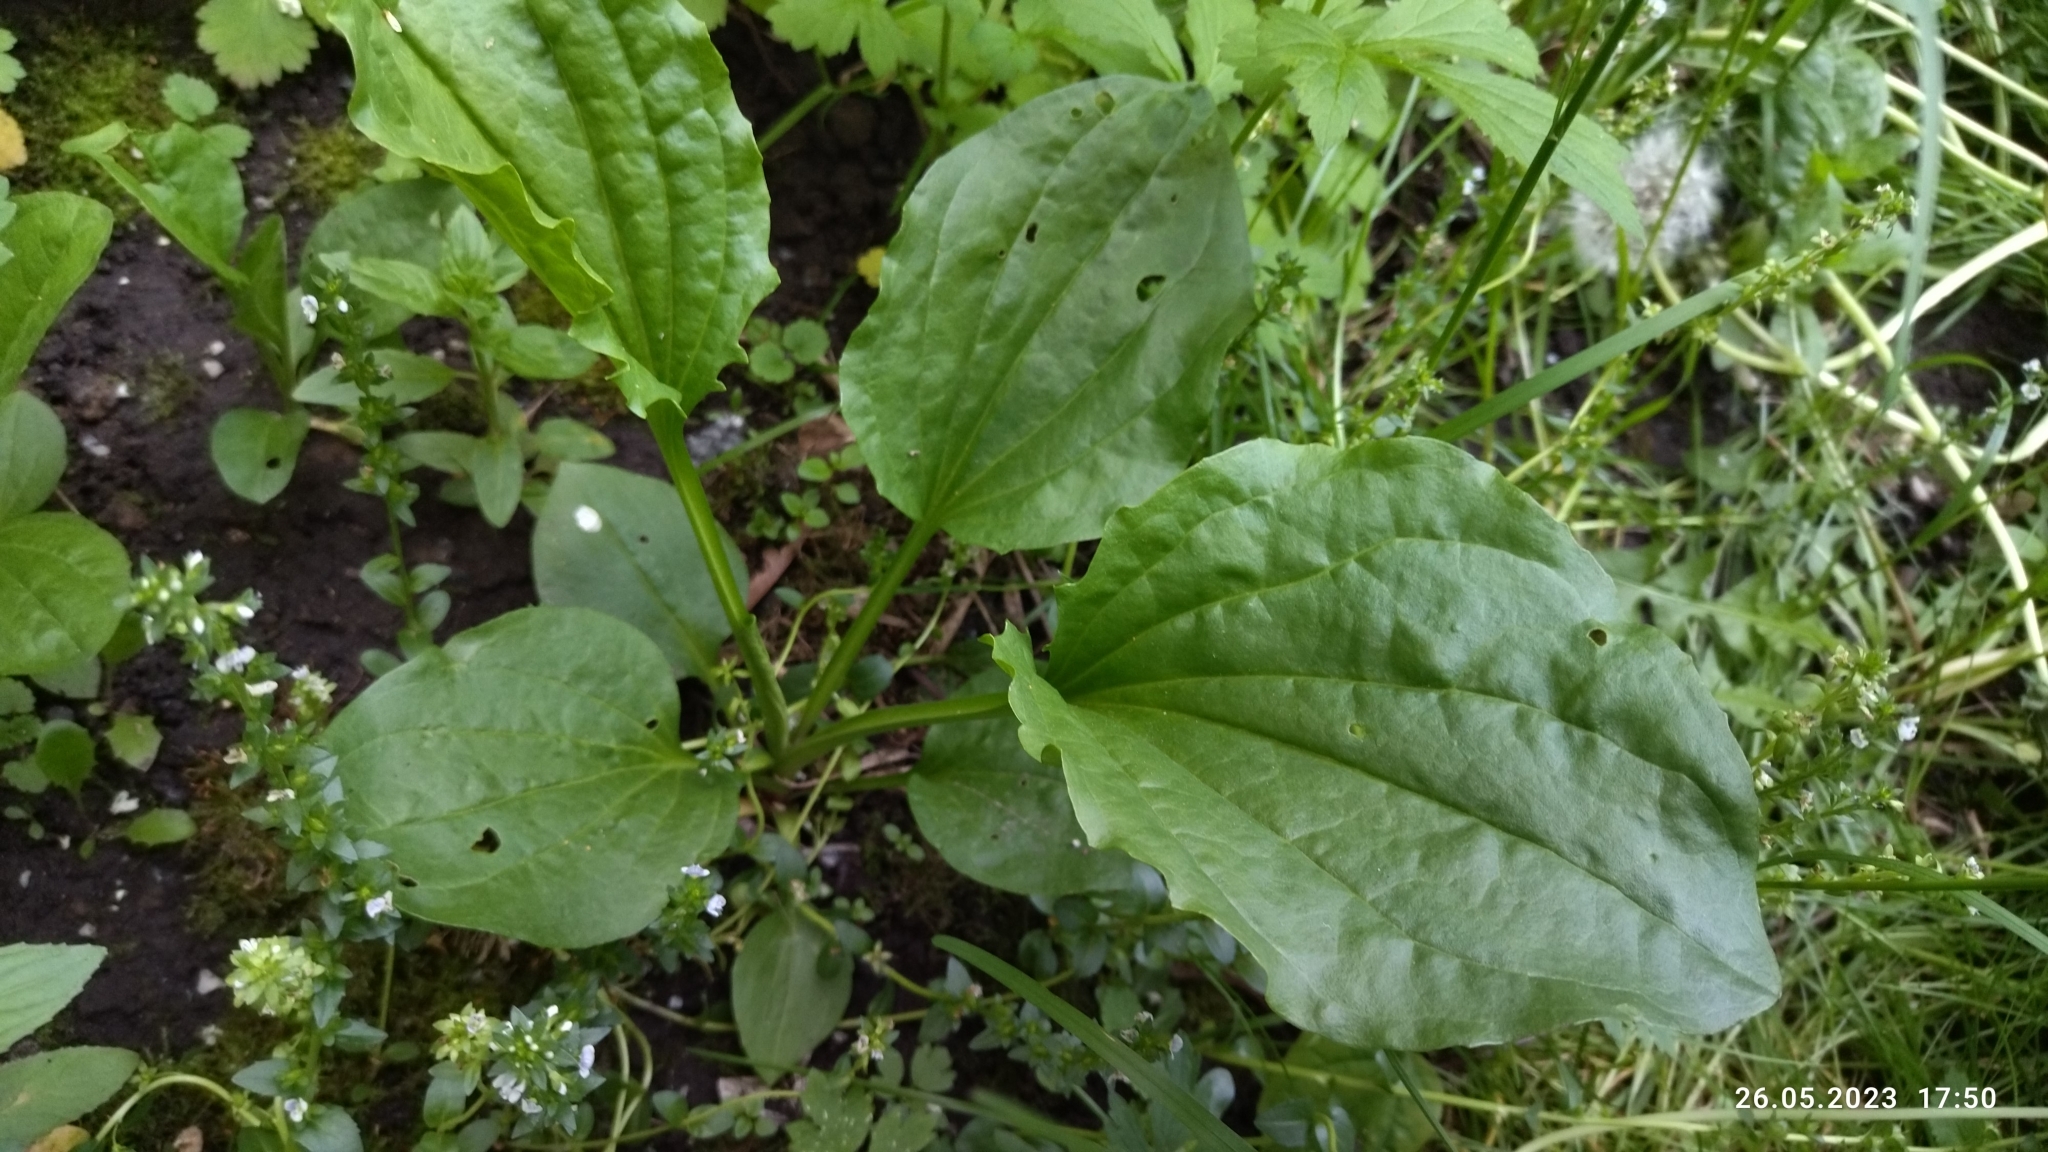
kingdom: Plantae
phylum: Tracheophyta
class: Magnoliopsida
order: Lamiales
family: Plantaginaceae
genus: Plantago
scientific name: Plantago major
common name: Common plantain
